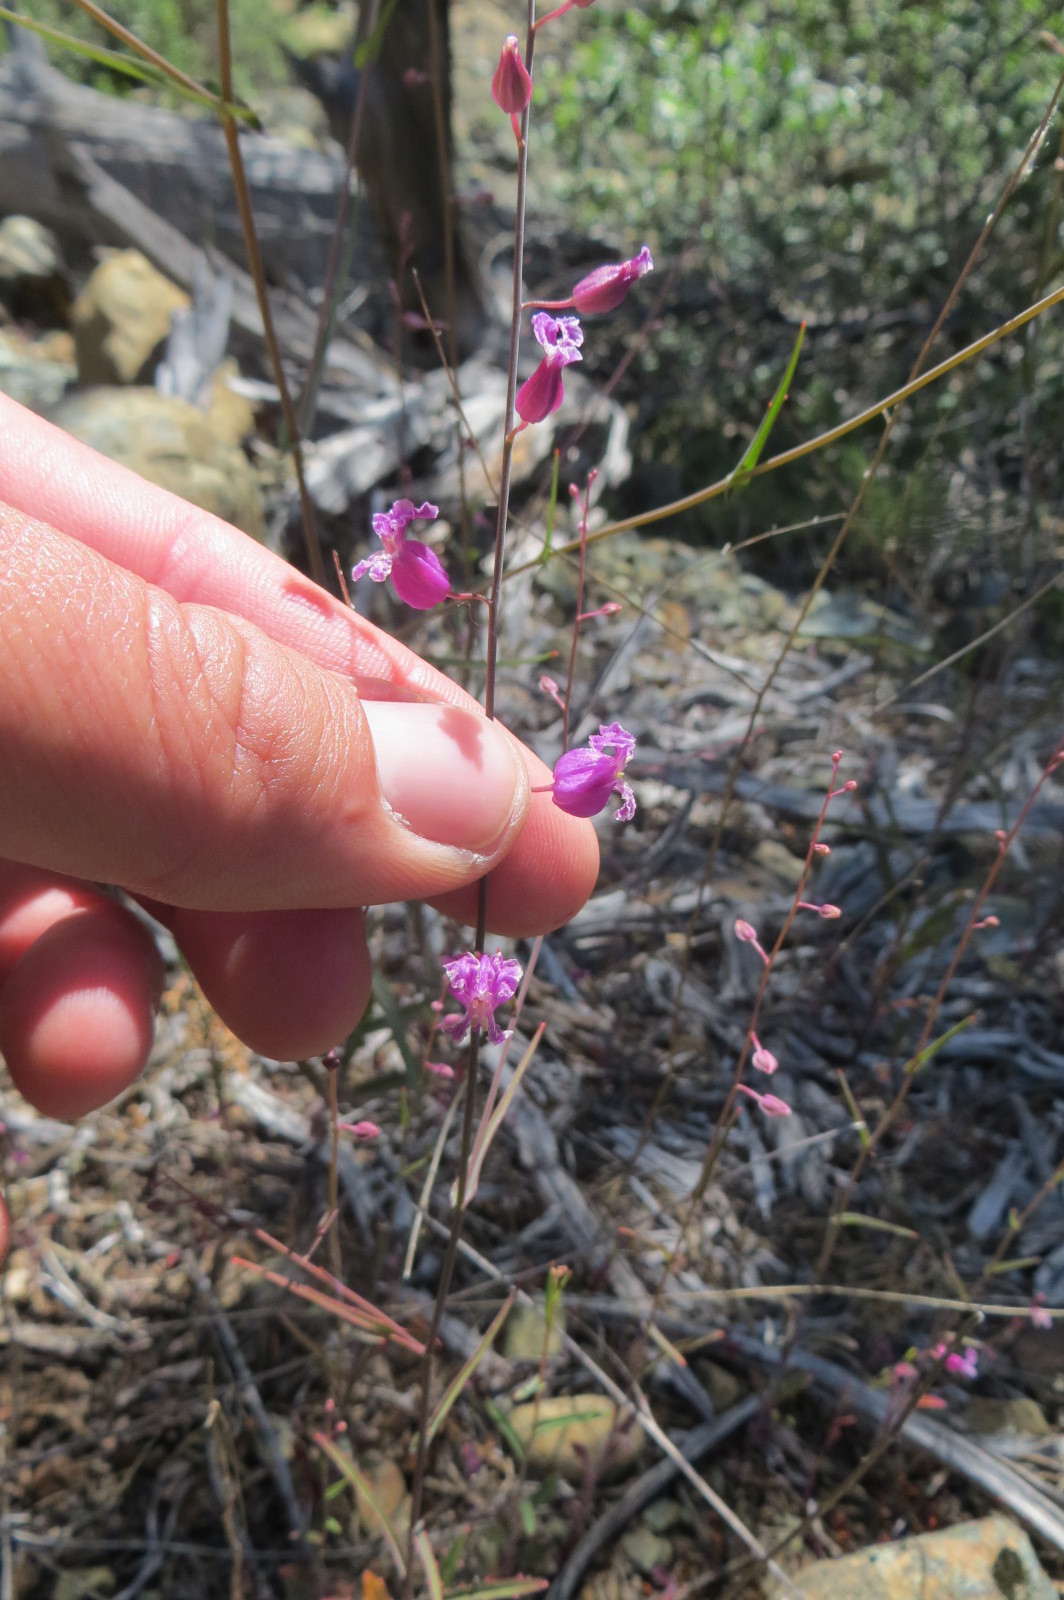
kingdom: Plantae
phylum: Tracheophyta
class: Magnoliopsida
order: Brassicales
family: Brassicaceae
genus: Streptanthus
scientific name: Streptanthus glandulosus
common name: Jewel-flower
